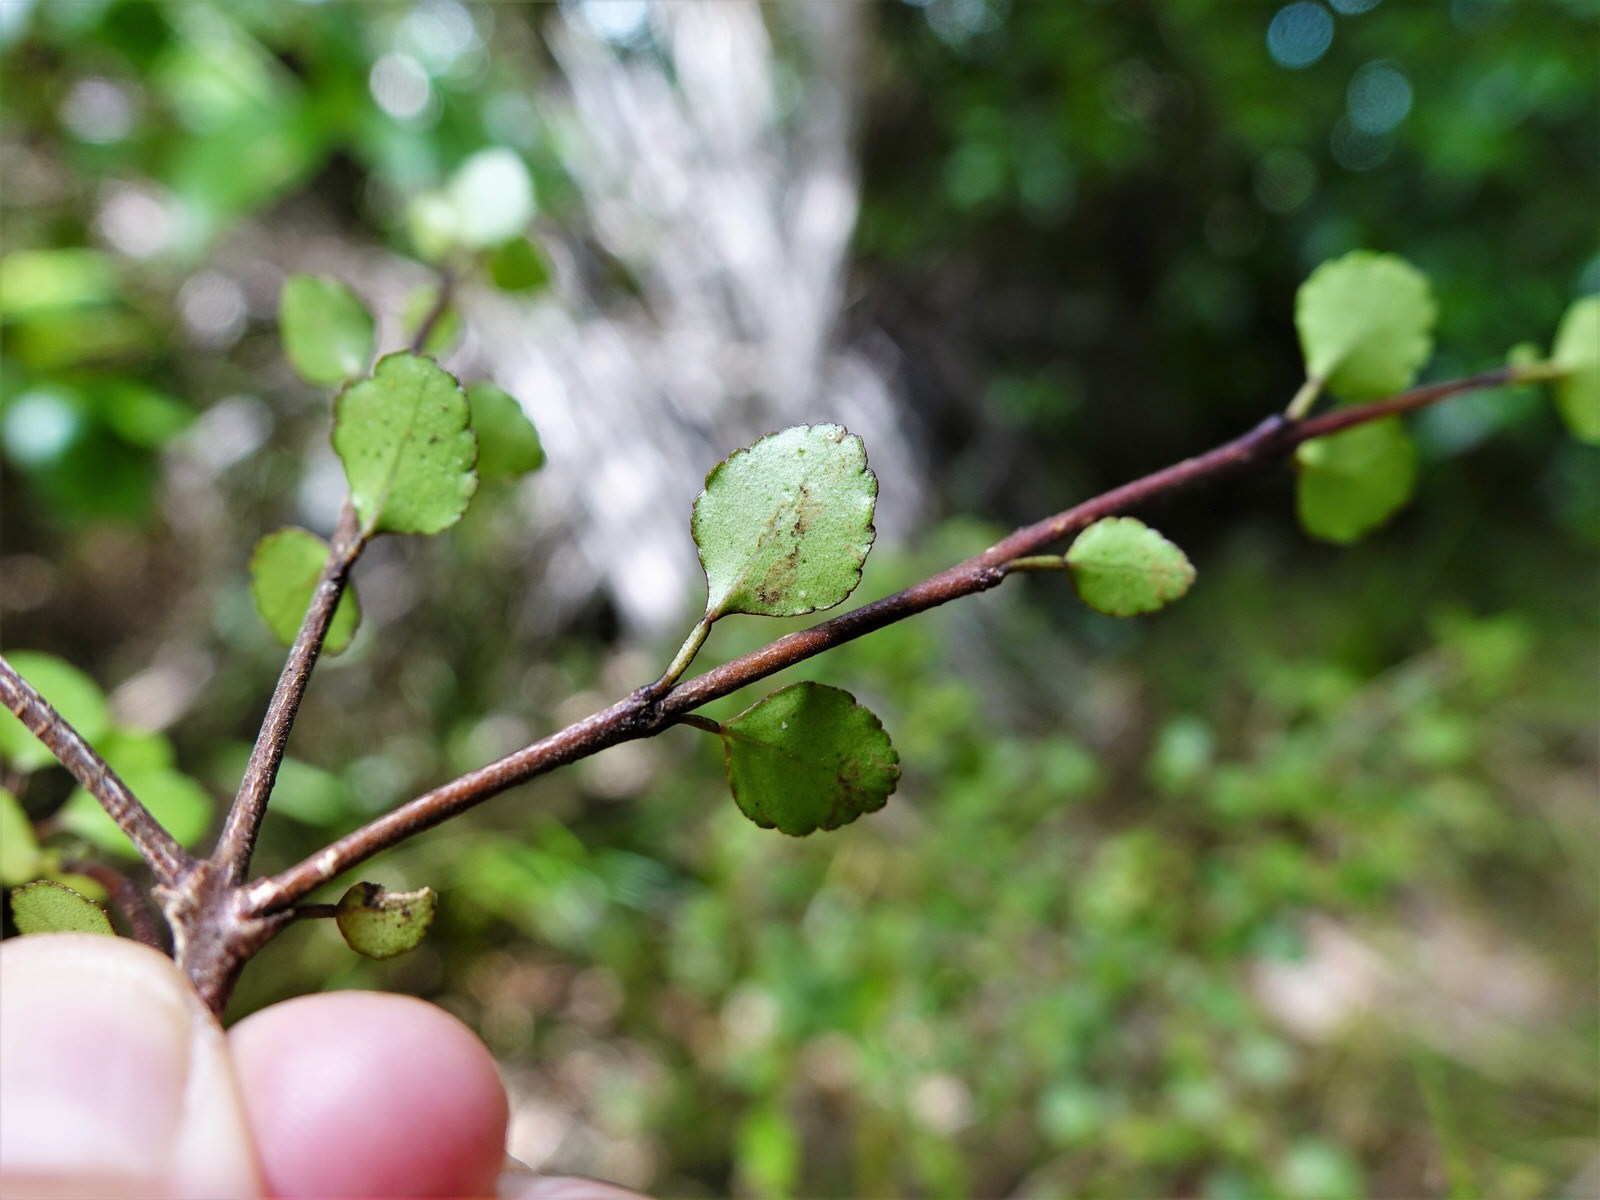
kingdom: Plantae
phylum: Tracheophyta
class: Magnoliopsida
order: Sapindales
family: Rutaceae
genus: Melicope
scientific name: Melicope simplex
